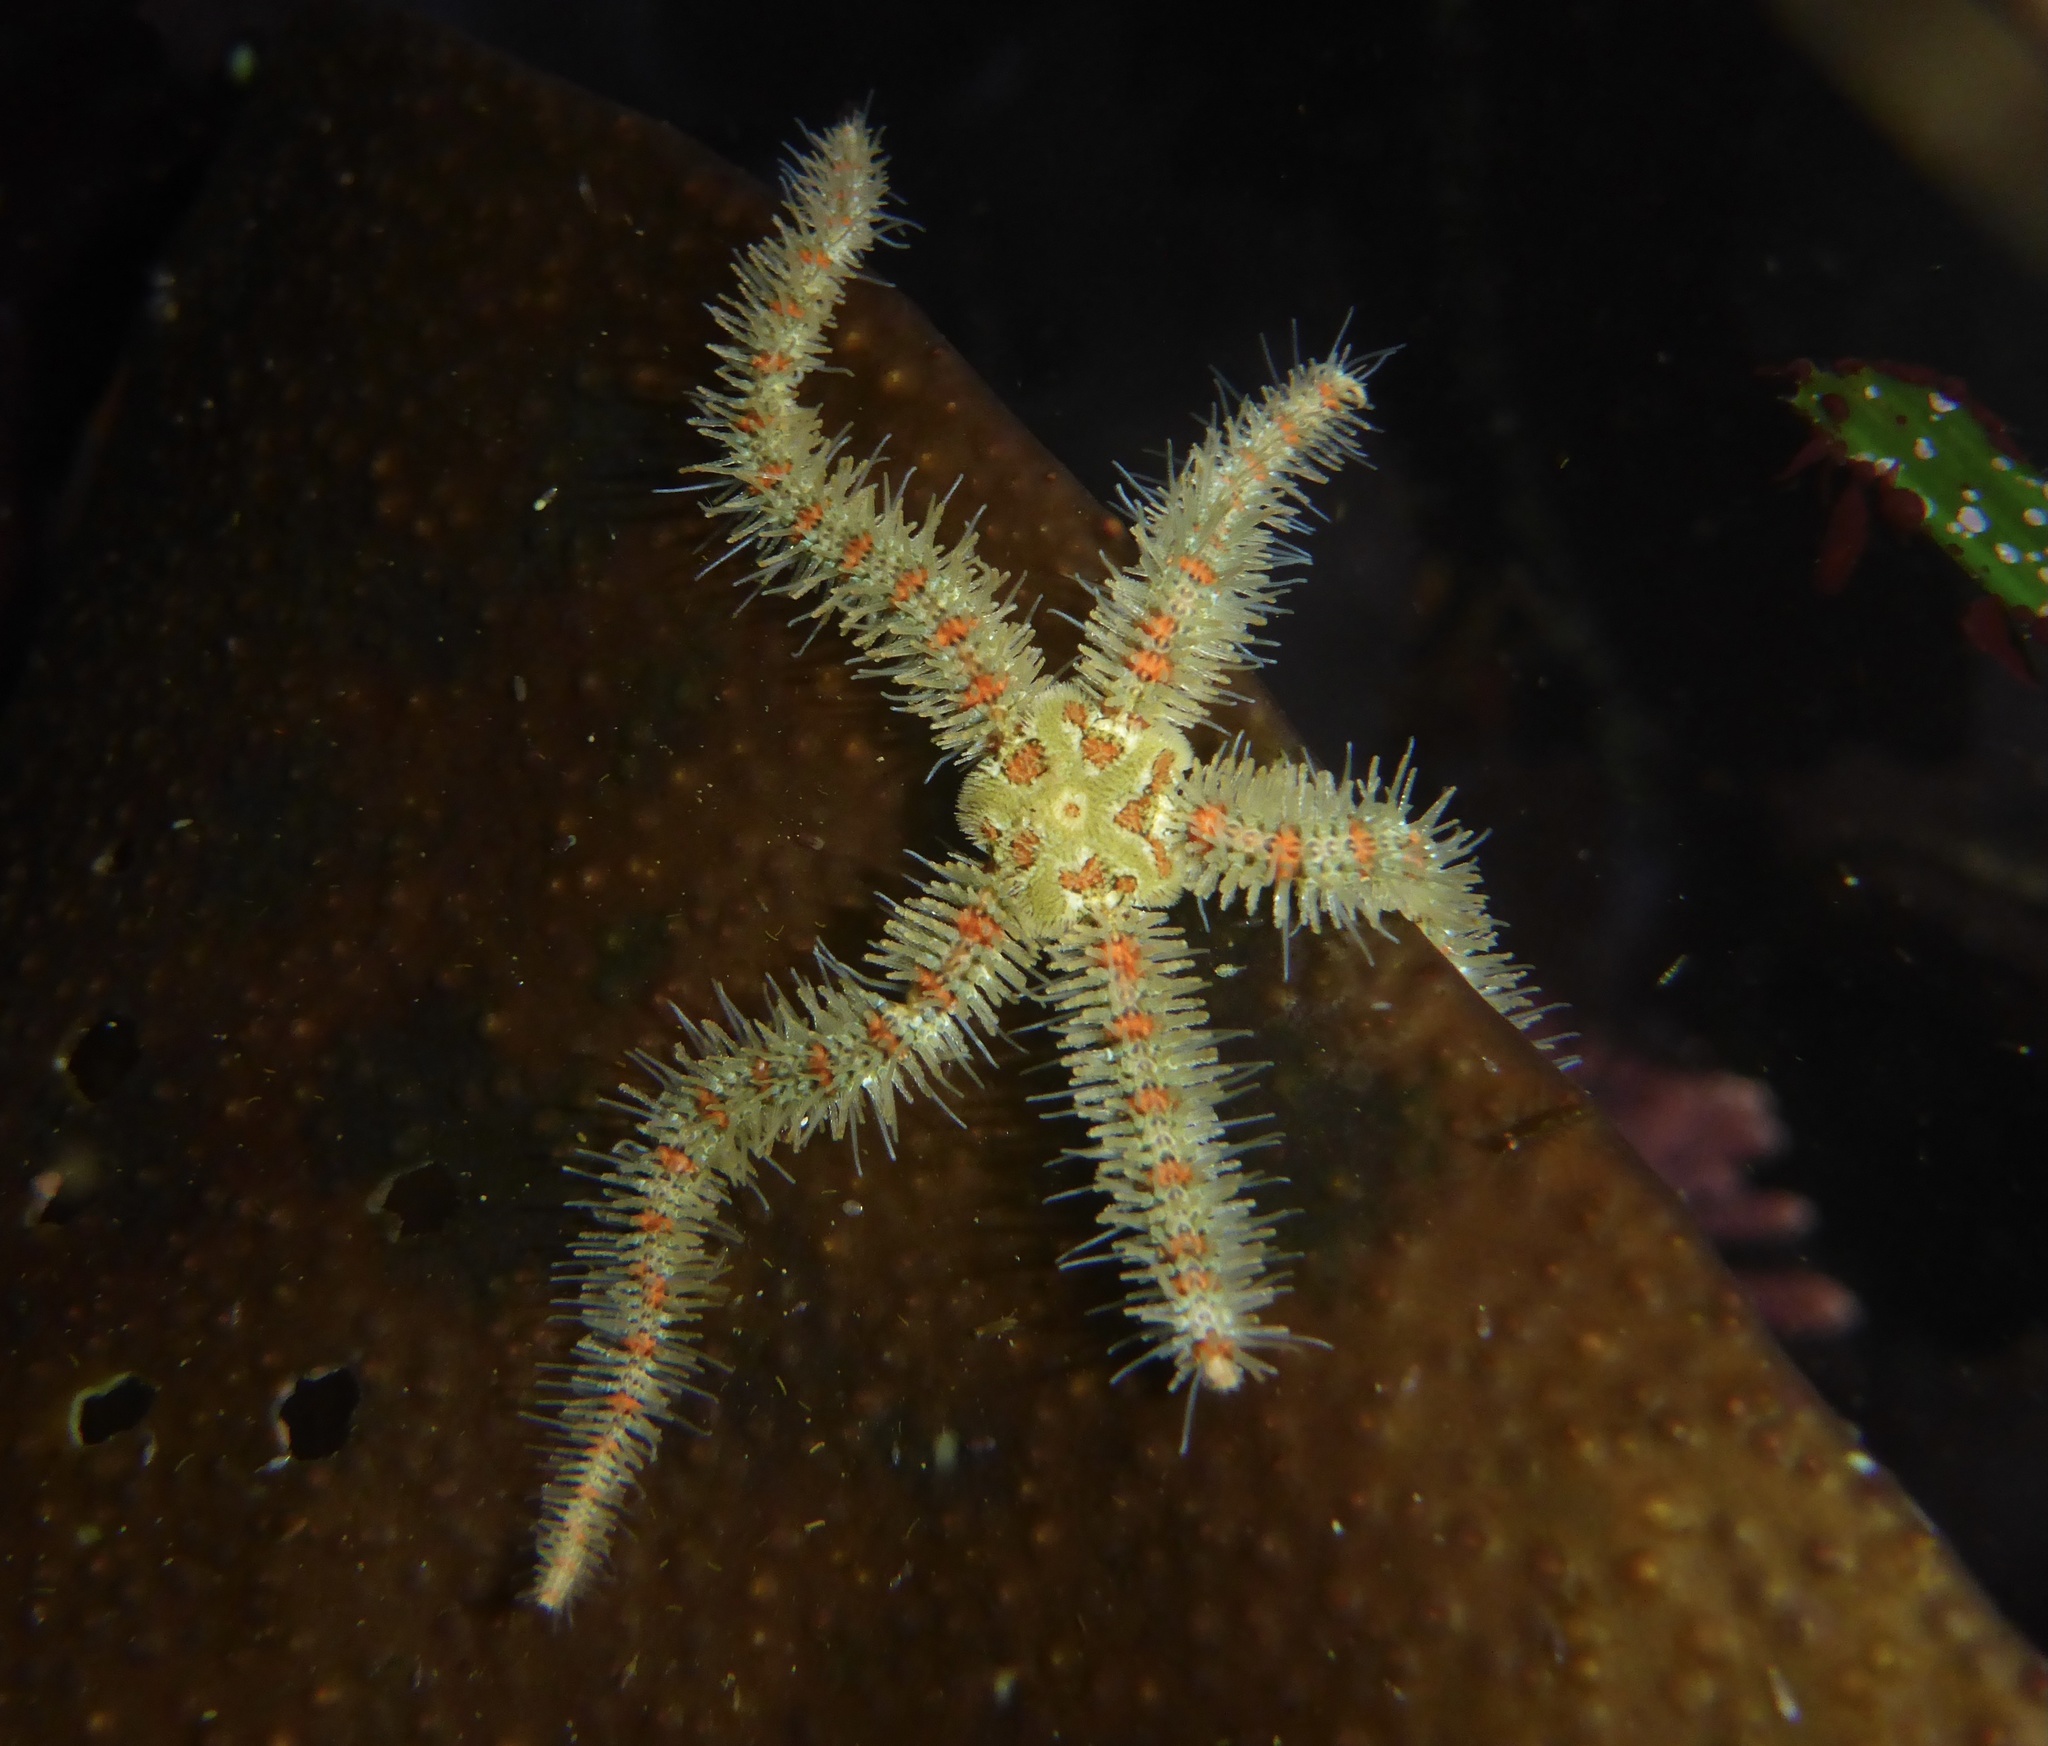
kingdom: Animalia
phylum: Echinodermata
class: Ophiuroidea
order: Amphilepidida
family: Ophiotrichidae
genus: Ophiothrix
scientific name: Ophiothrix spiculata
